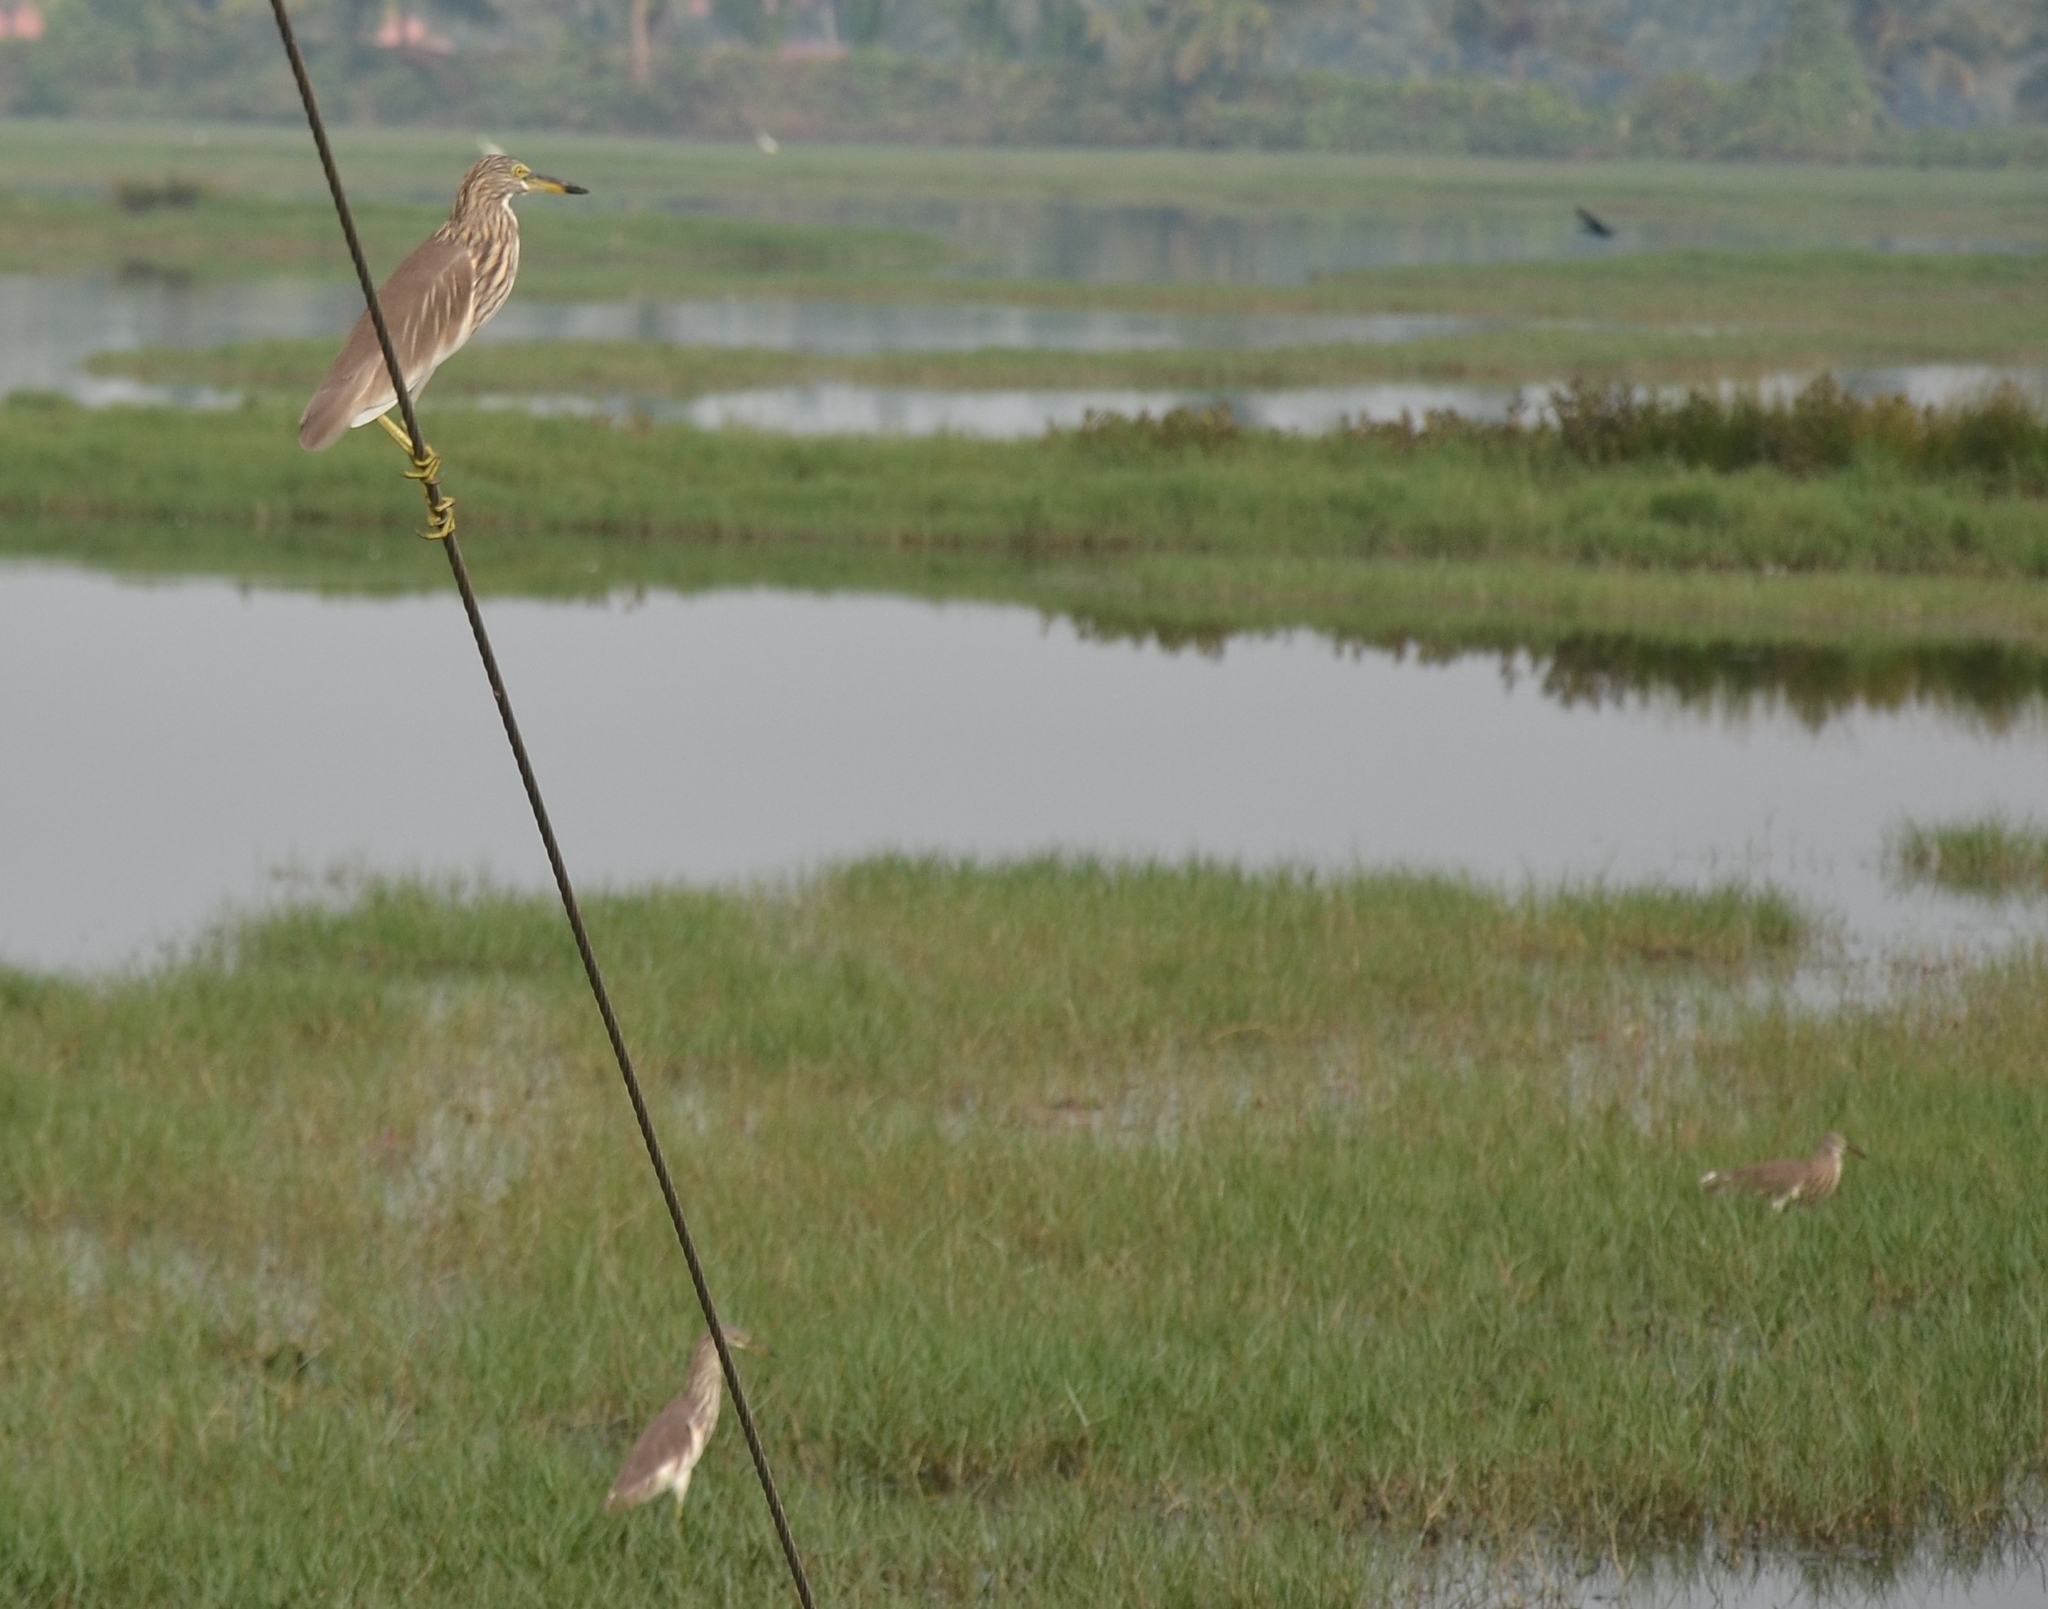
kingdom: Animalia
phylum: Chordata
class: Aves
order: Pelecaniformes
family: Ardeidae
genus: Ardeola
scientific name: Ardeola grayii
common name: Indian pond heron
